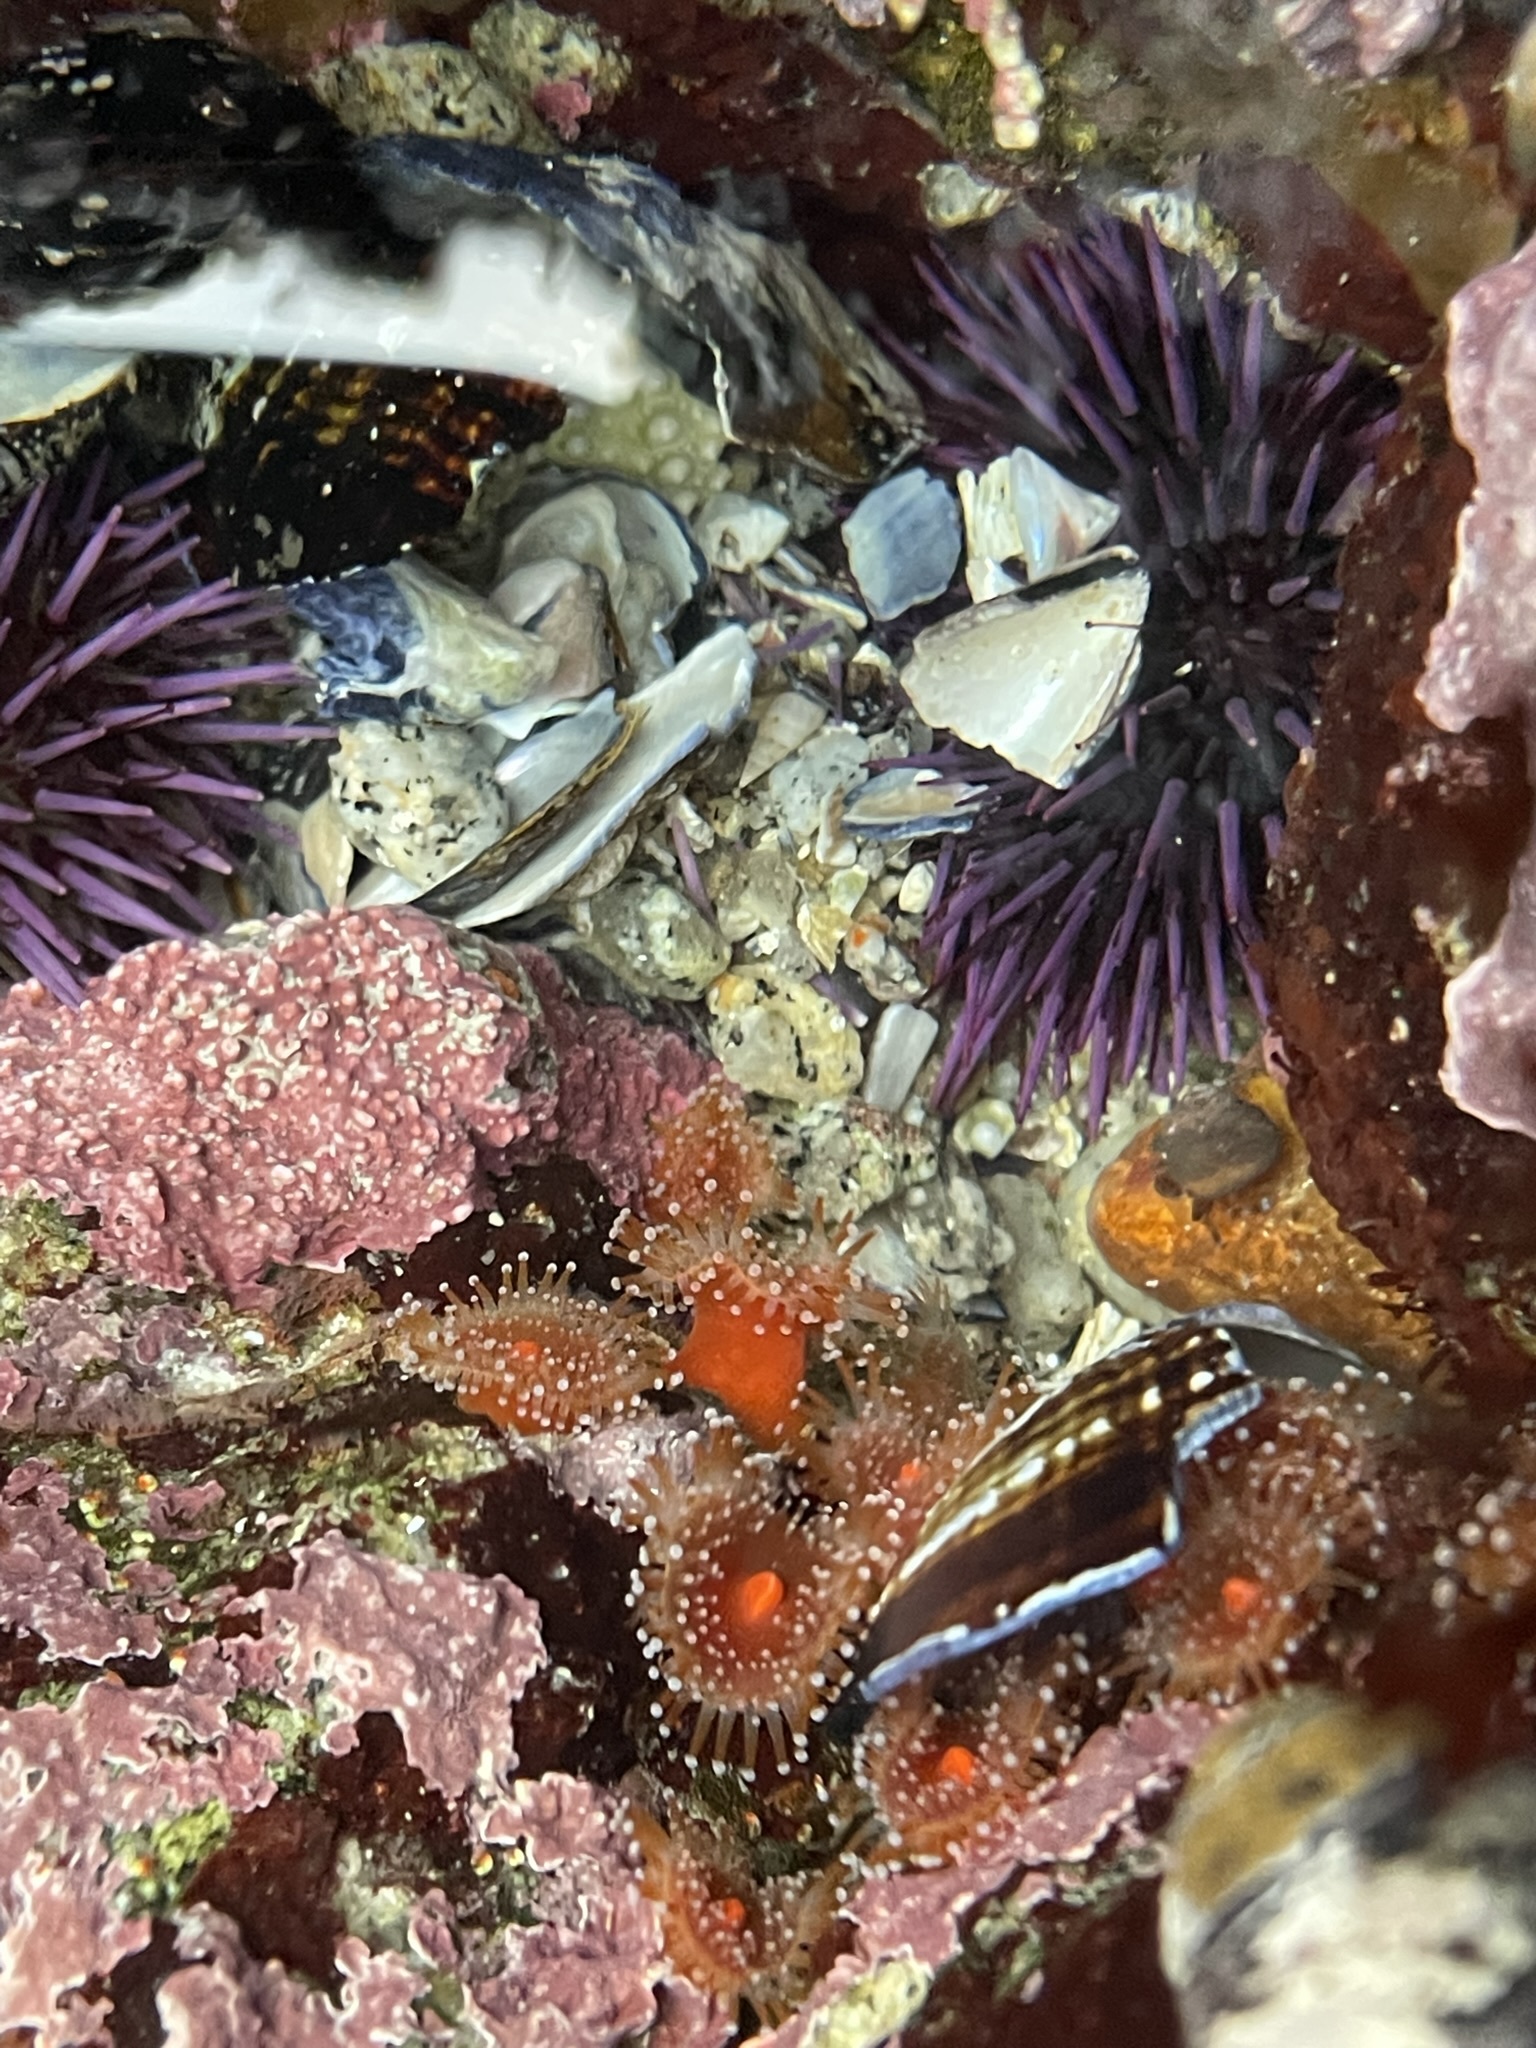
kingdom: Animalia
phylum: Cnidaria
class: Anthozoa
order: Corallimorpharia
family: Corallimorphidae
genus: Corynactis
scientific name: Corynactis californica
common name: Strawberry corallimorpharian
